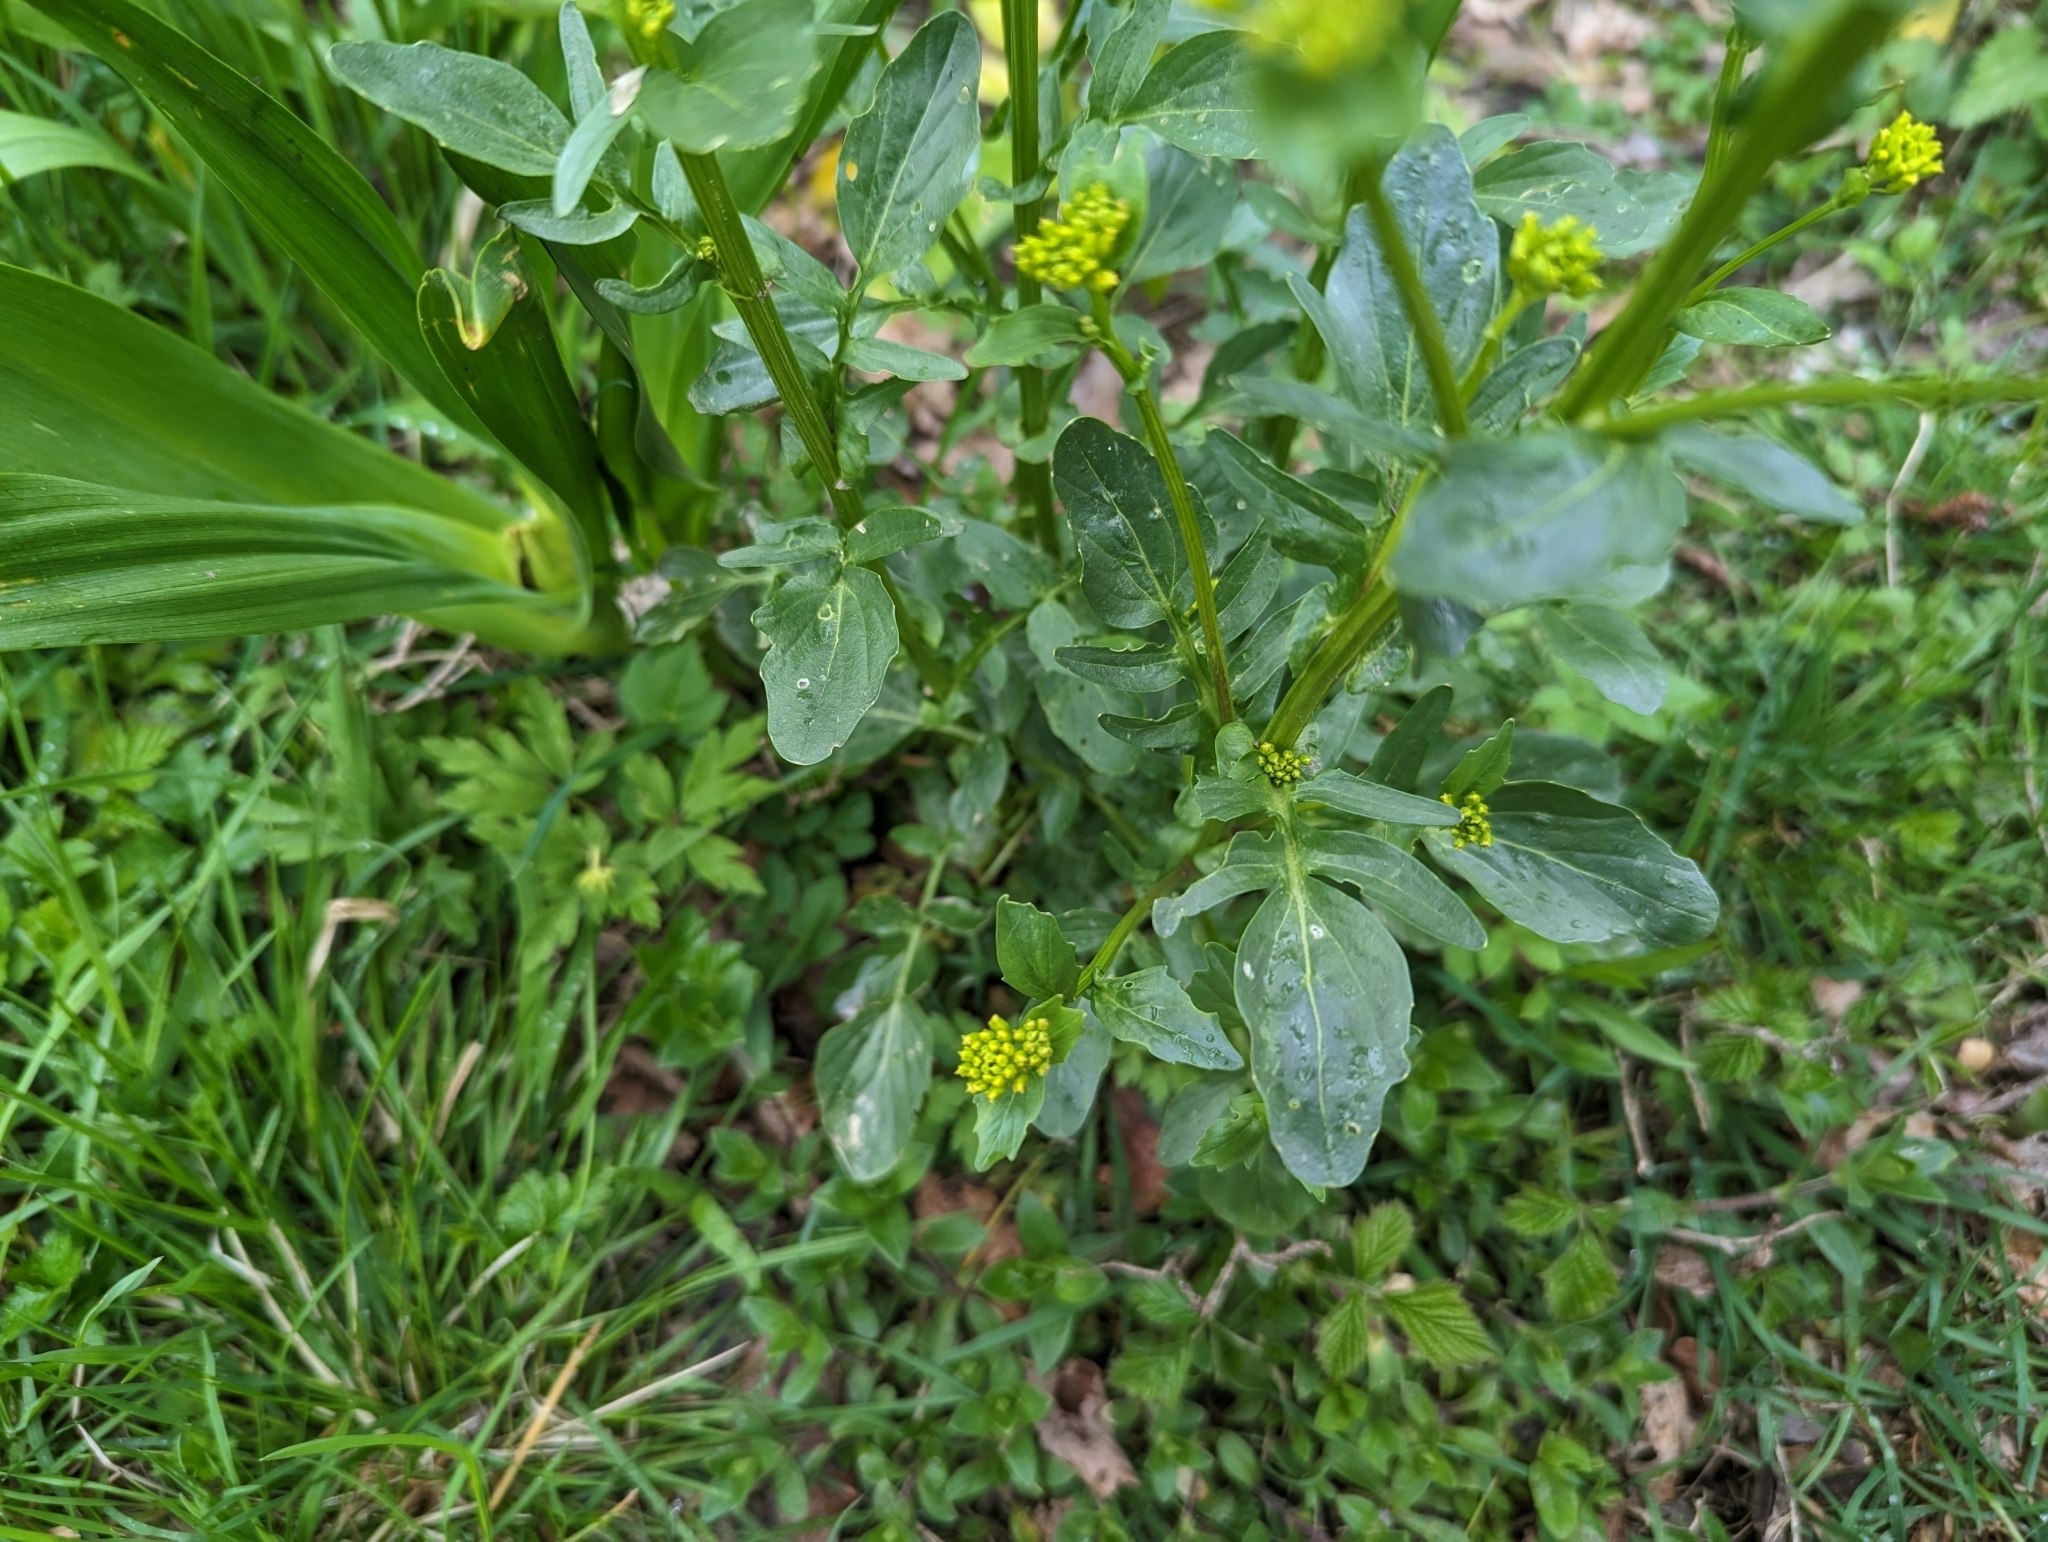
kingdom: Plantae
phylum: Tracheophyta
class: Magnoliopsida
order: Brassicales
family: Brassicaceae
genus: Barbarea
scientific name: Barbarea vulgaris
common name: Cressy-greens
